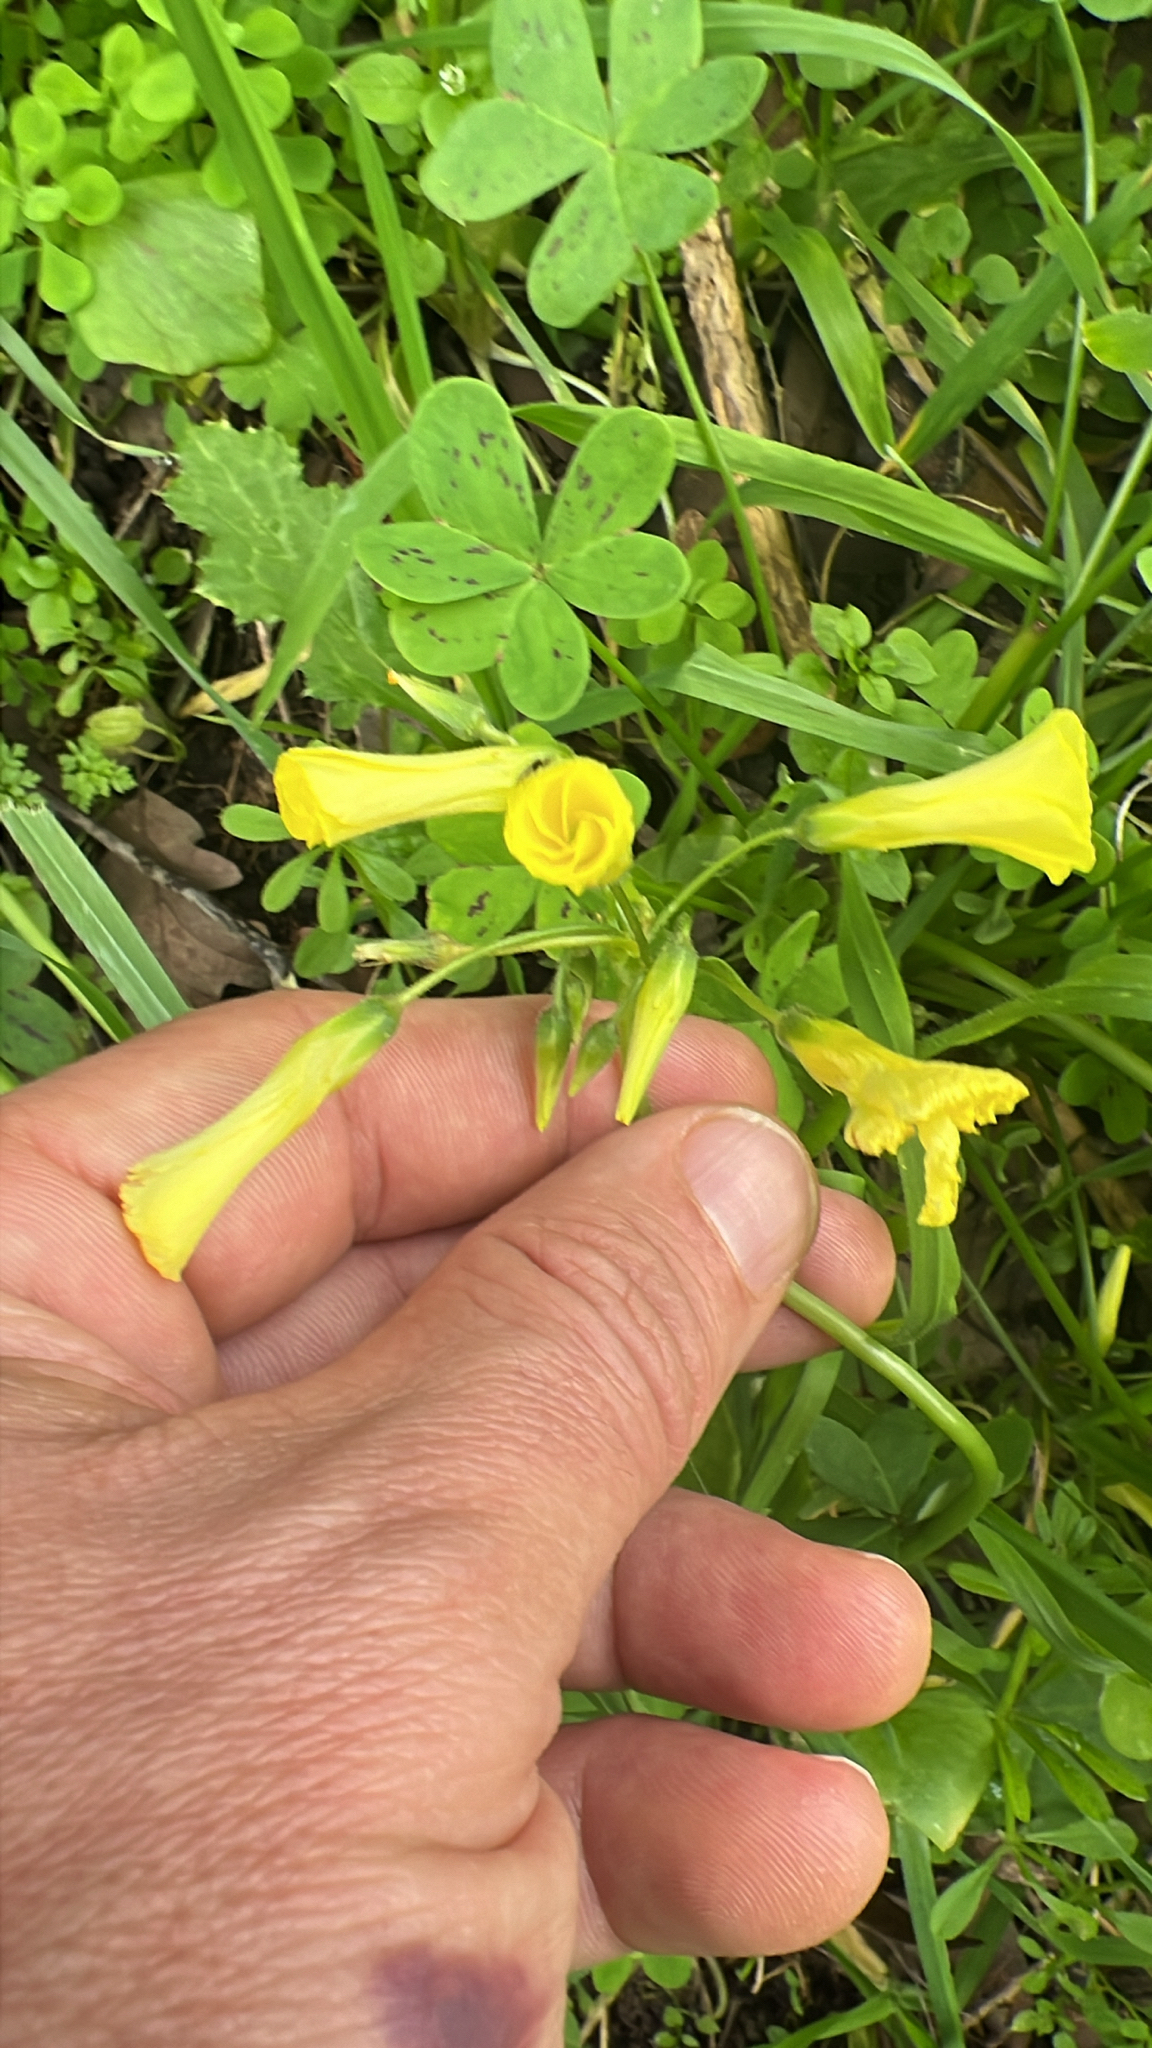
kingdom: Plantae
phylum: Tracheophyta
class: Magnoliopsida
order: Oxalidales
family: Oxalidaceae
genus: Oxalis
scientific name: Oxalis pes-caprae
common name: Bermuda-buttercup
